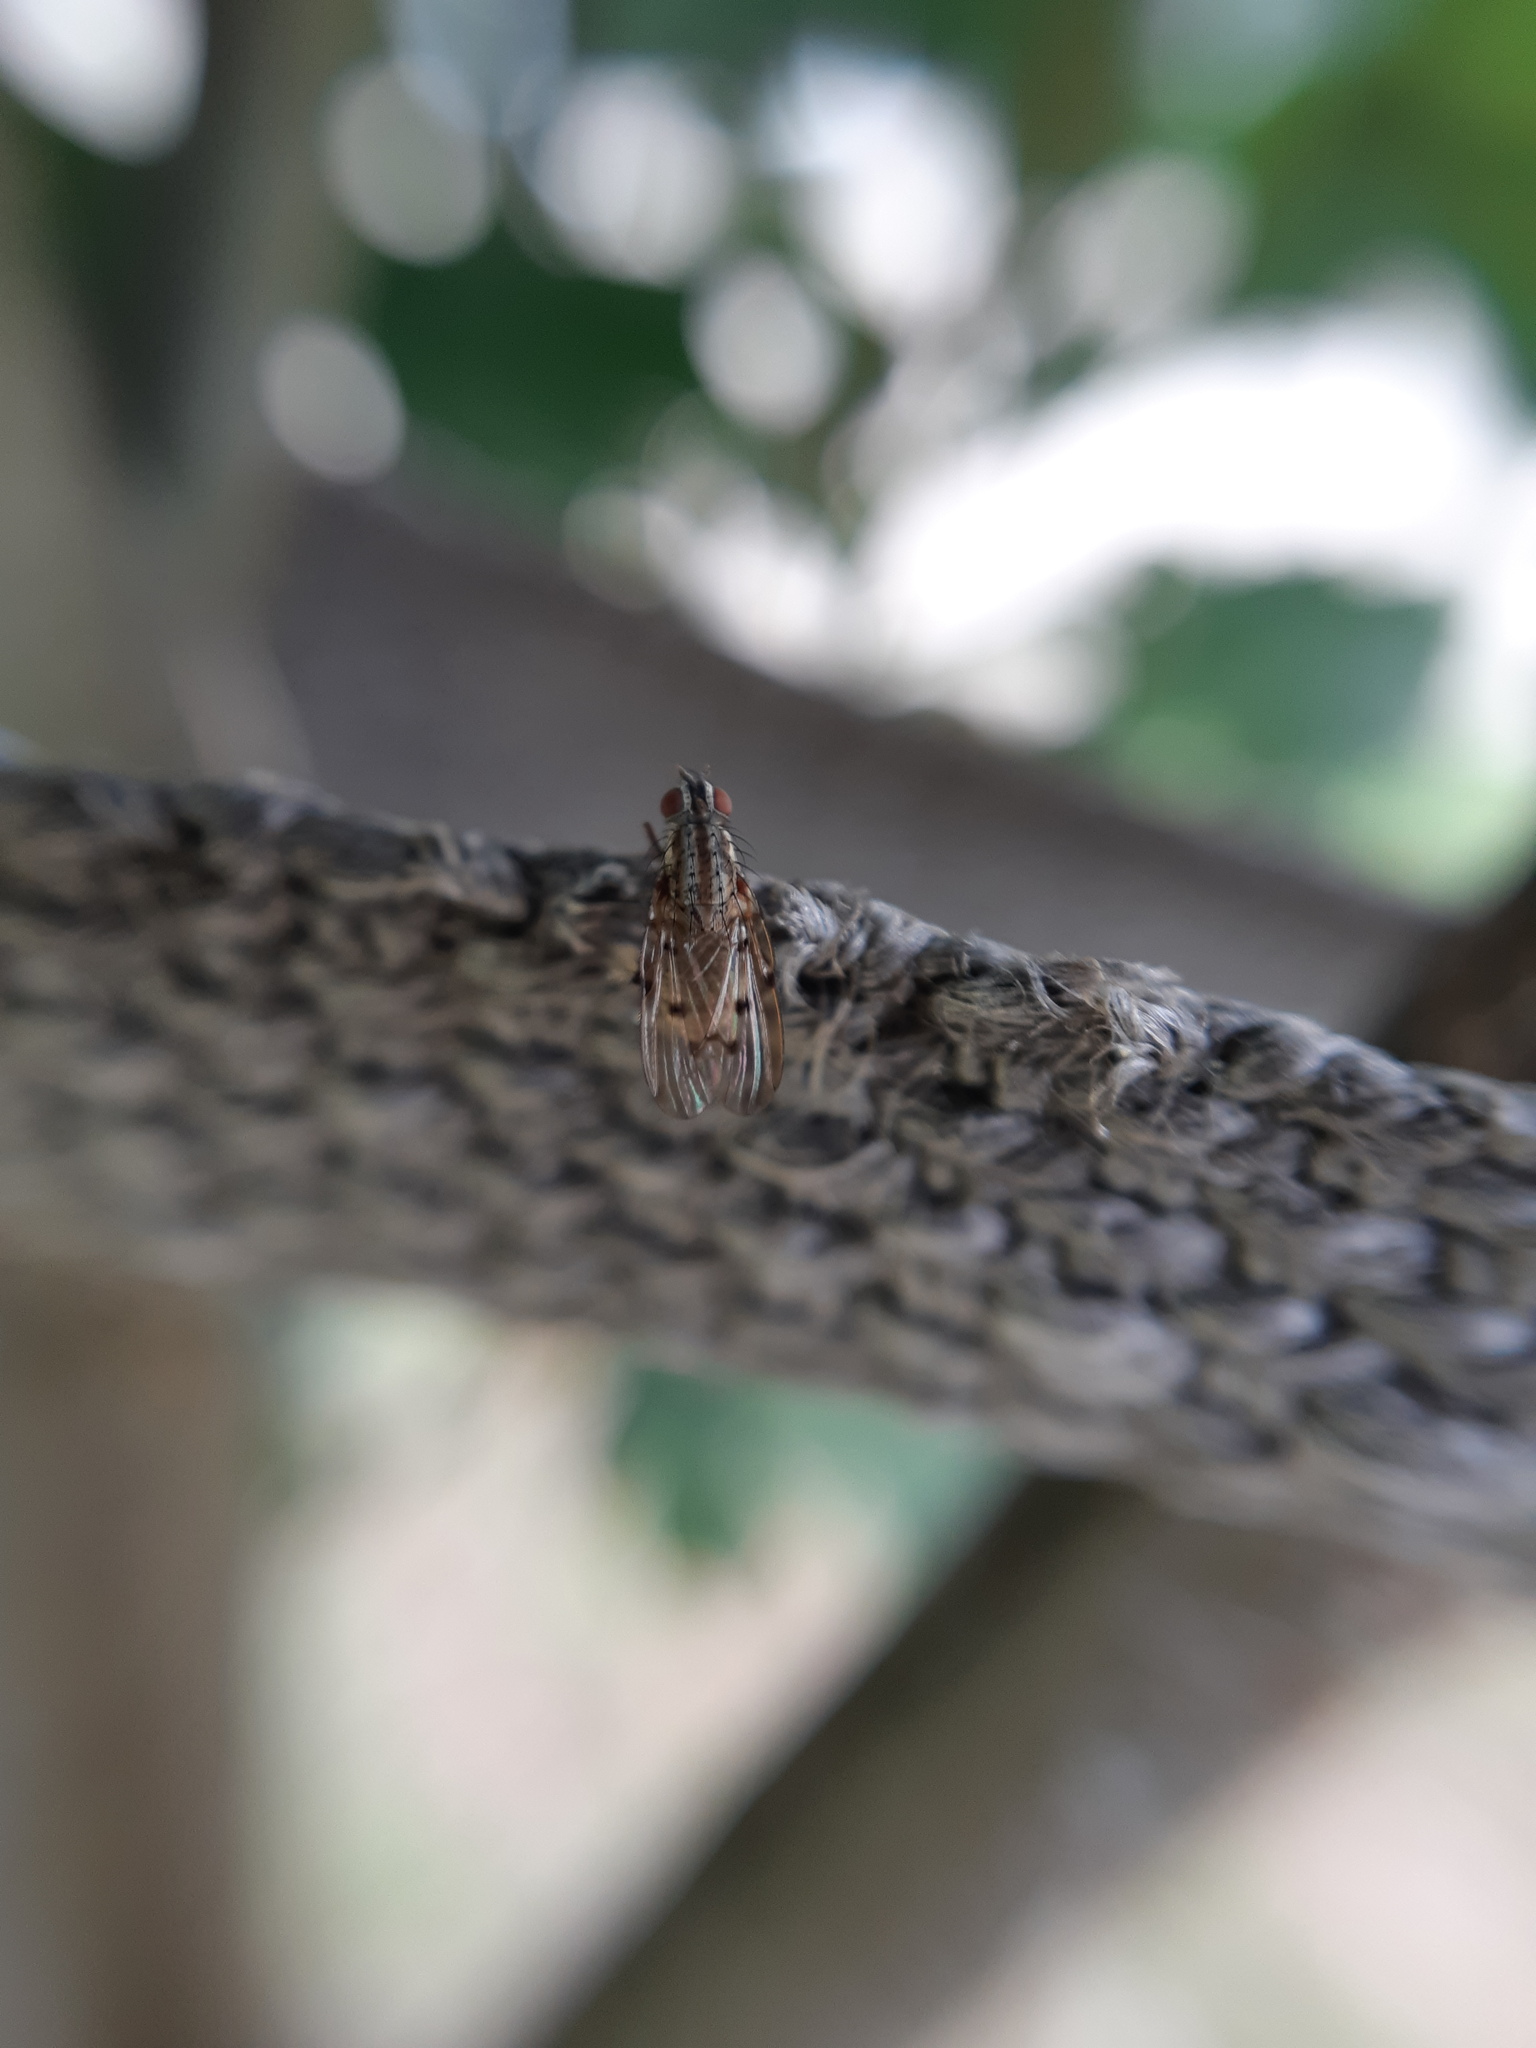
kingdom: Animalia
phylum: Arthropoda
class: Insecta
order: Diptera
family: Anthomyiidae
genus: Anthomyia
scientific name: Anthomyia punctipennis
